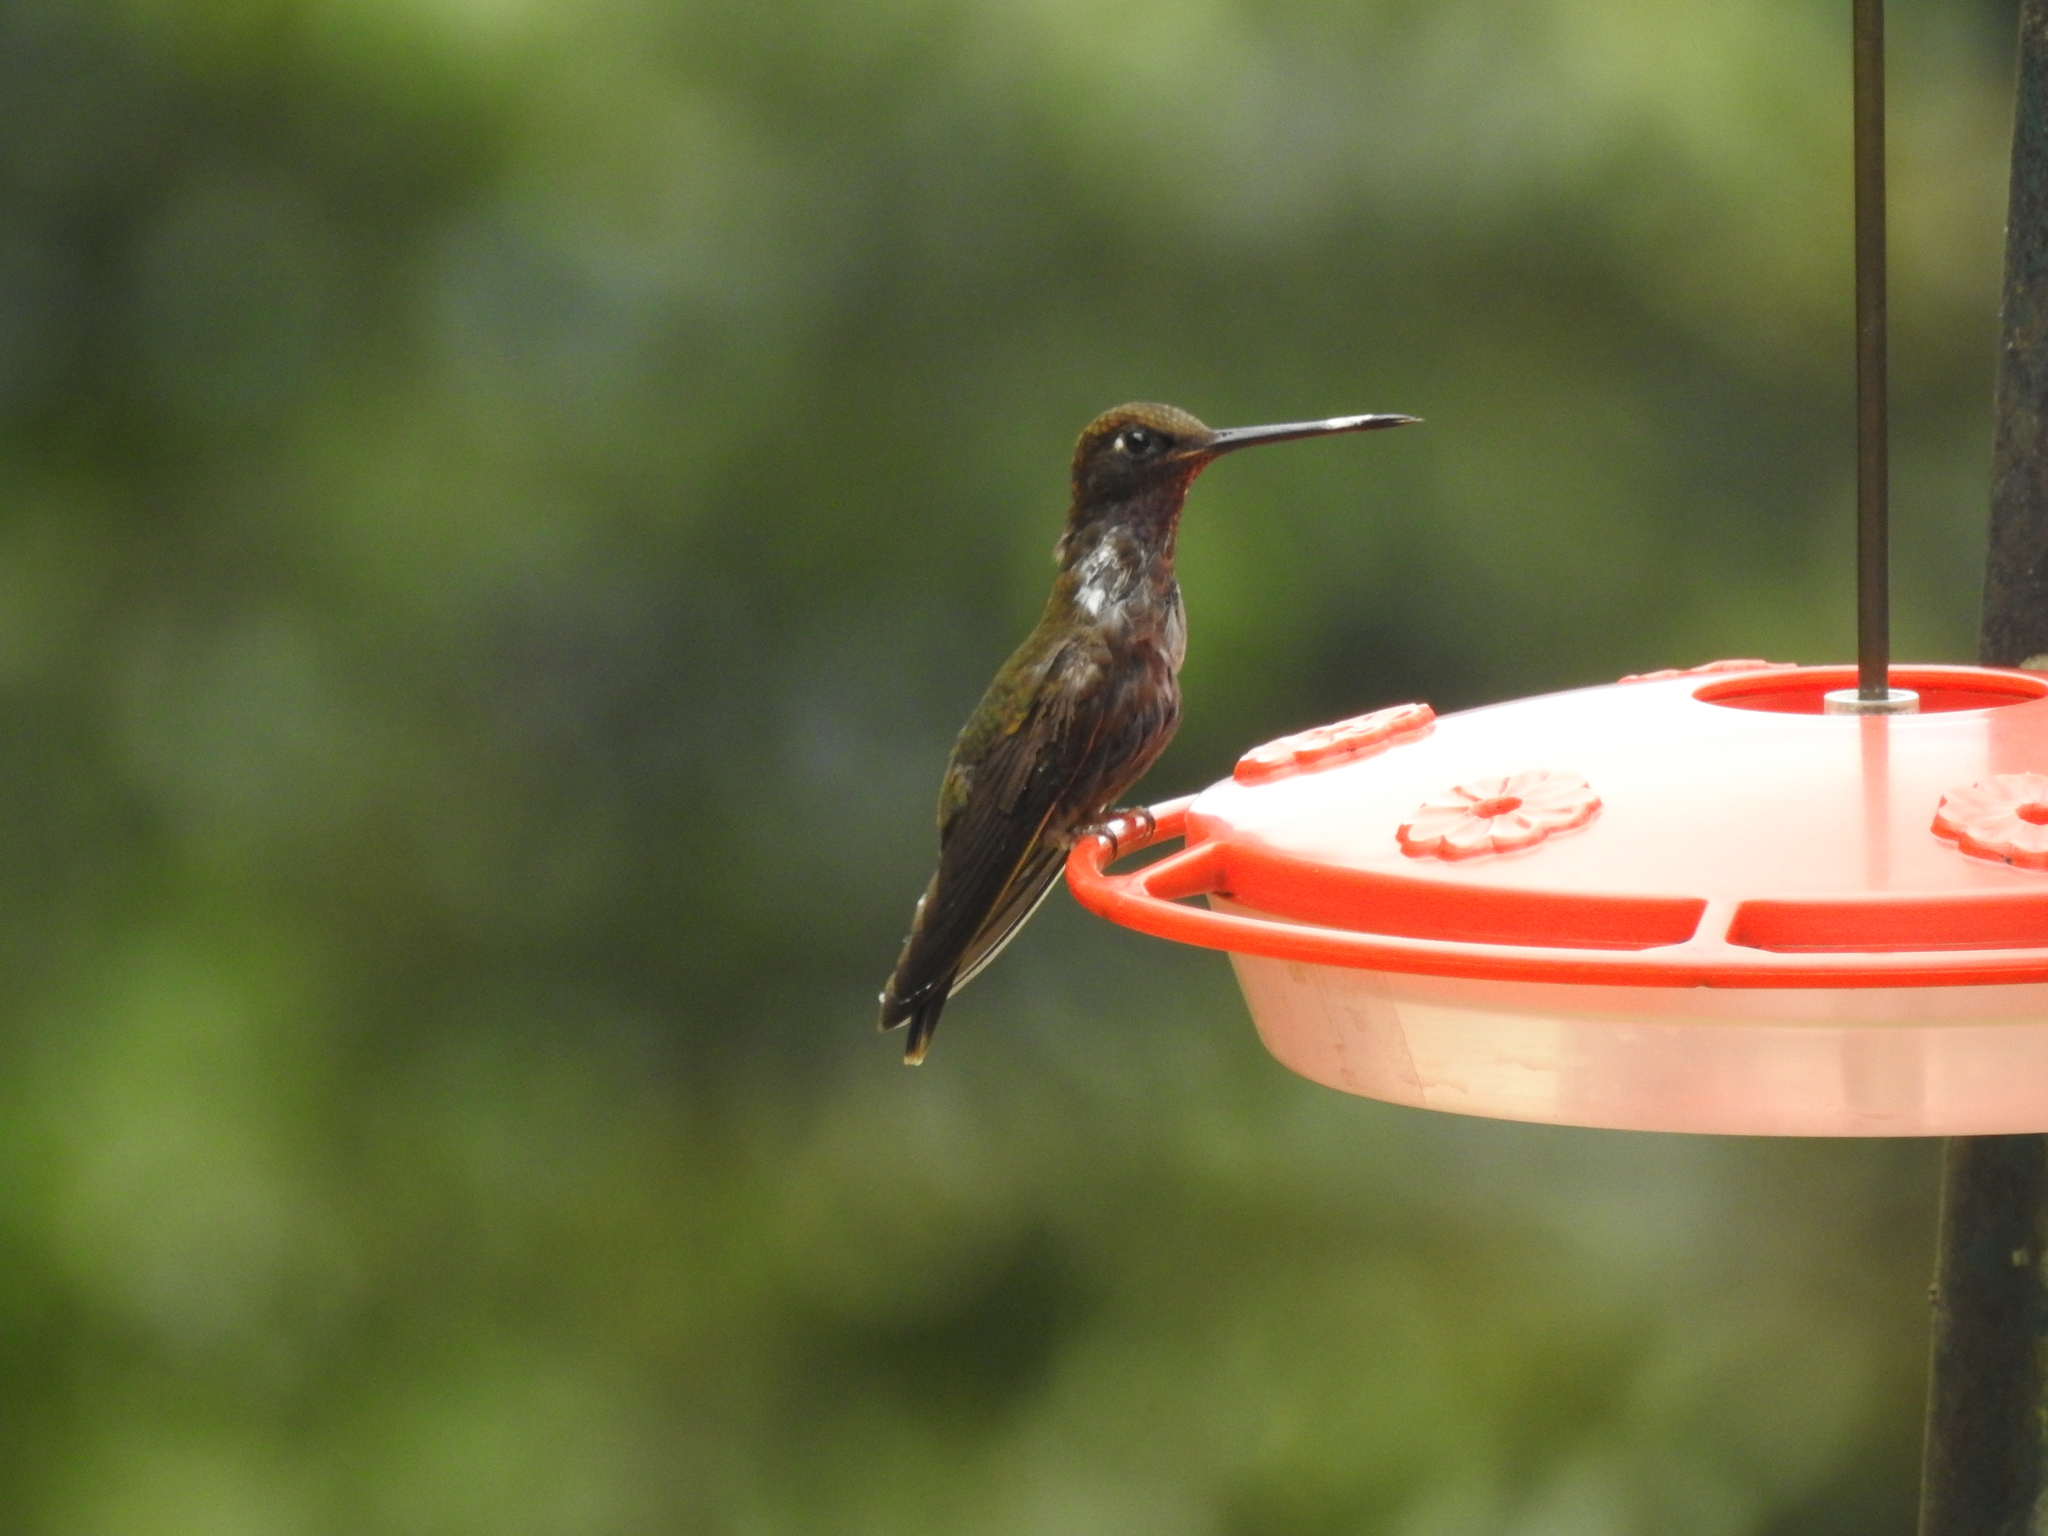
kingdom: Animalia
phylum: Chordata
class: Aves
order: Apodiformes
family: Trochilidae
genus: Coeligena
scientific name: Coeligena wilsoni
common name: Brown inca
